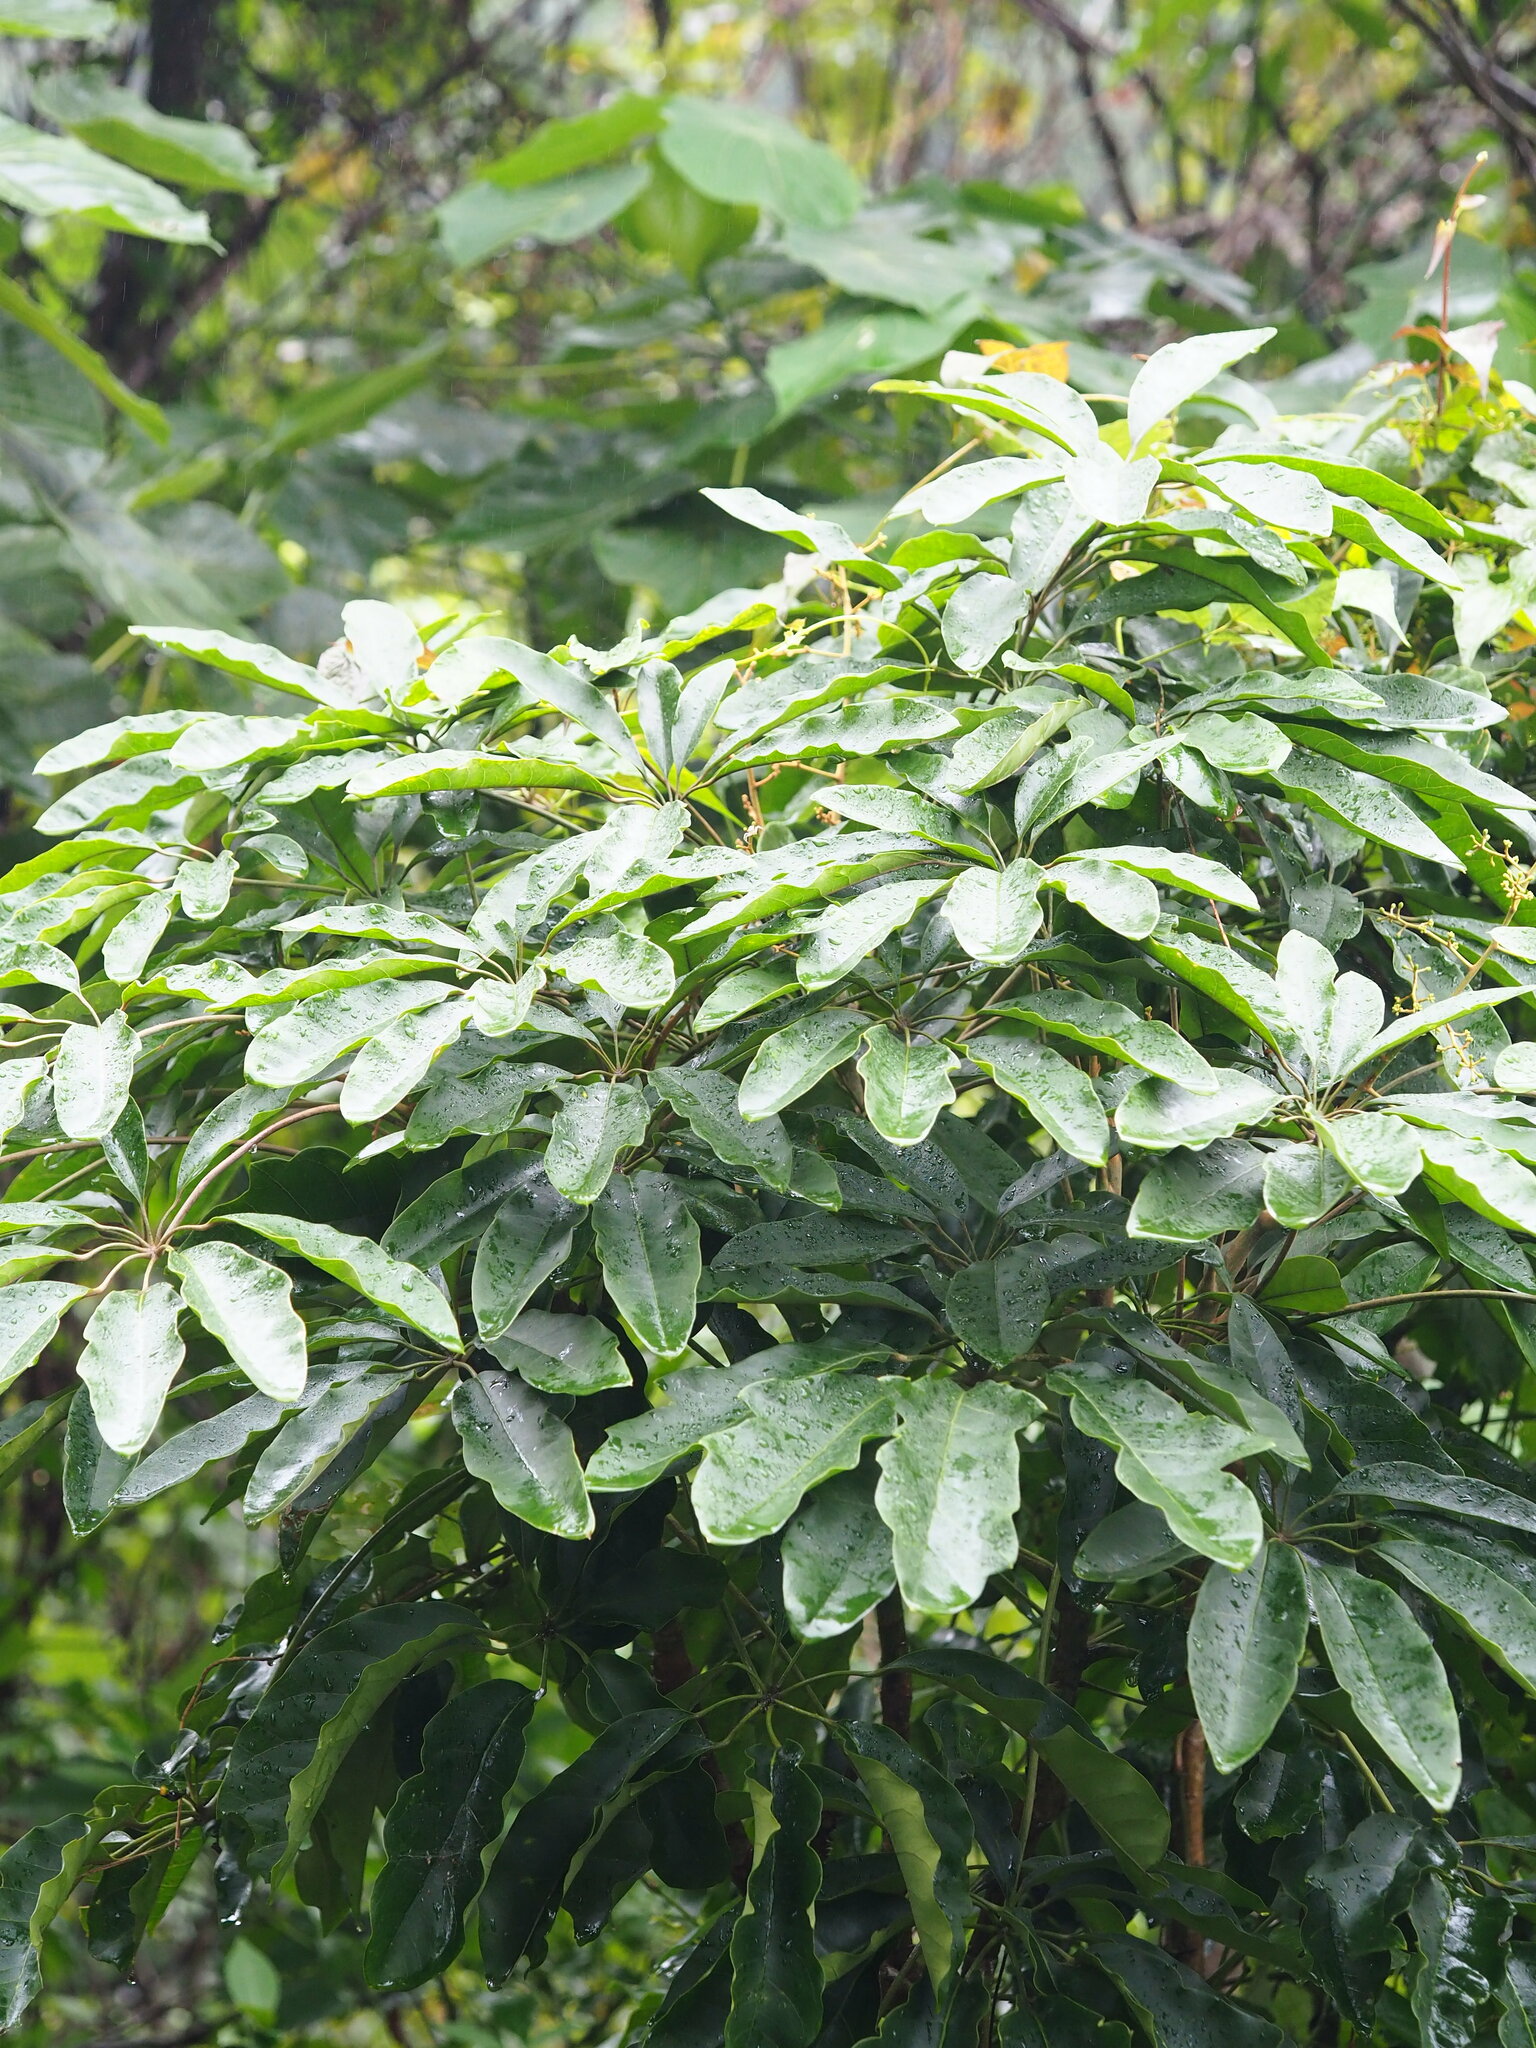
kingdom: Plantae
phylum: Tracheophyta
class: Magnoliopsida
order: Apiales
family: Araliaceae
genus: Heptapleurum
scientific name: Heptapleurum heptaphyllum
